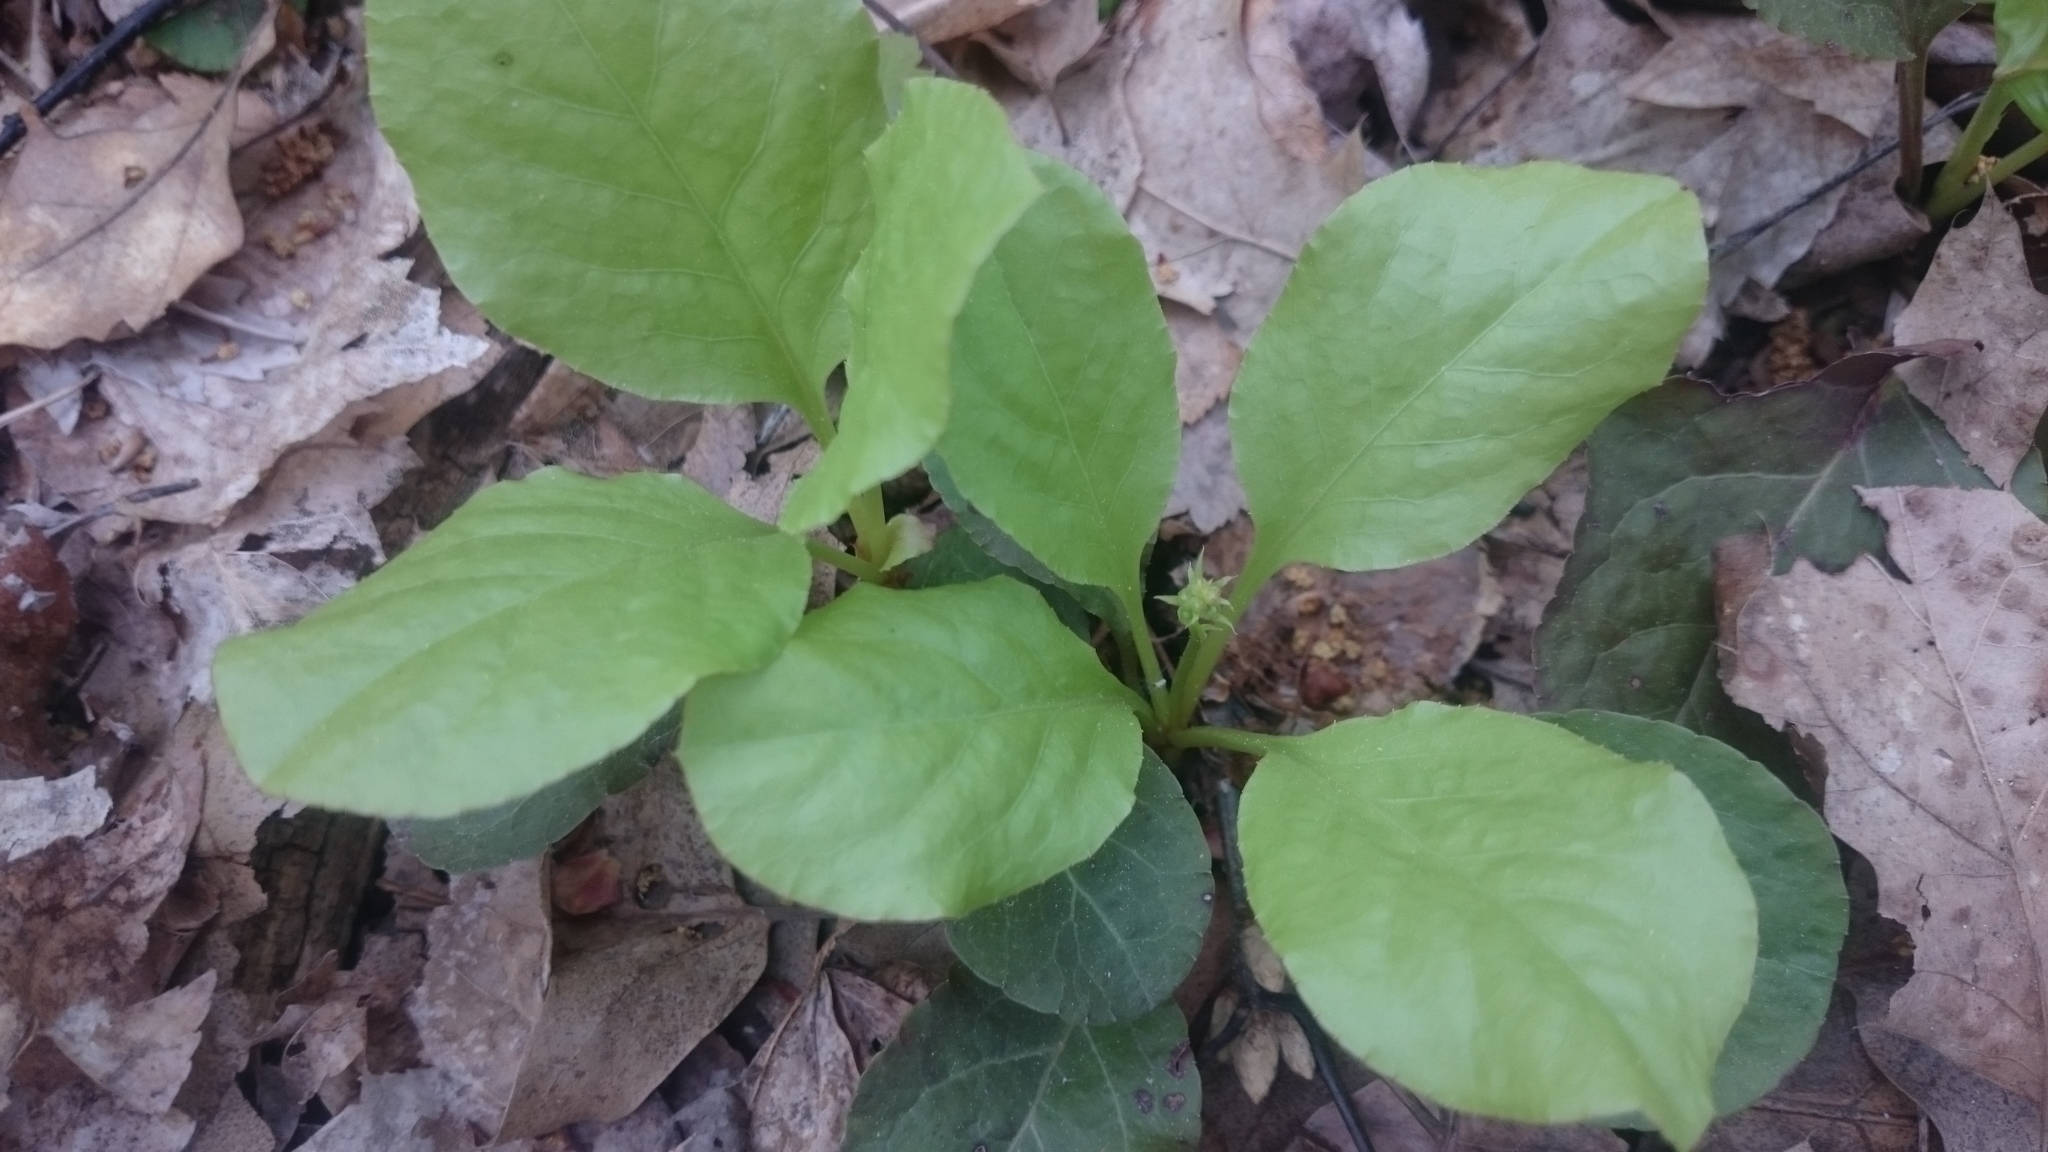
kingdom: Plantae
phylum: Tracheophyta
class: Magnoliopsida
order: Ericales
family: Ericaceae
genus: Pyrola
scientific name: Pyrola elliptica
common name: Shinleaf
